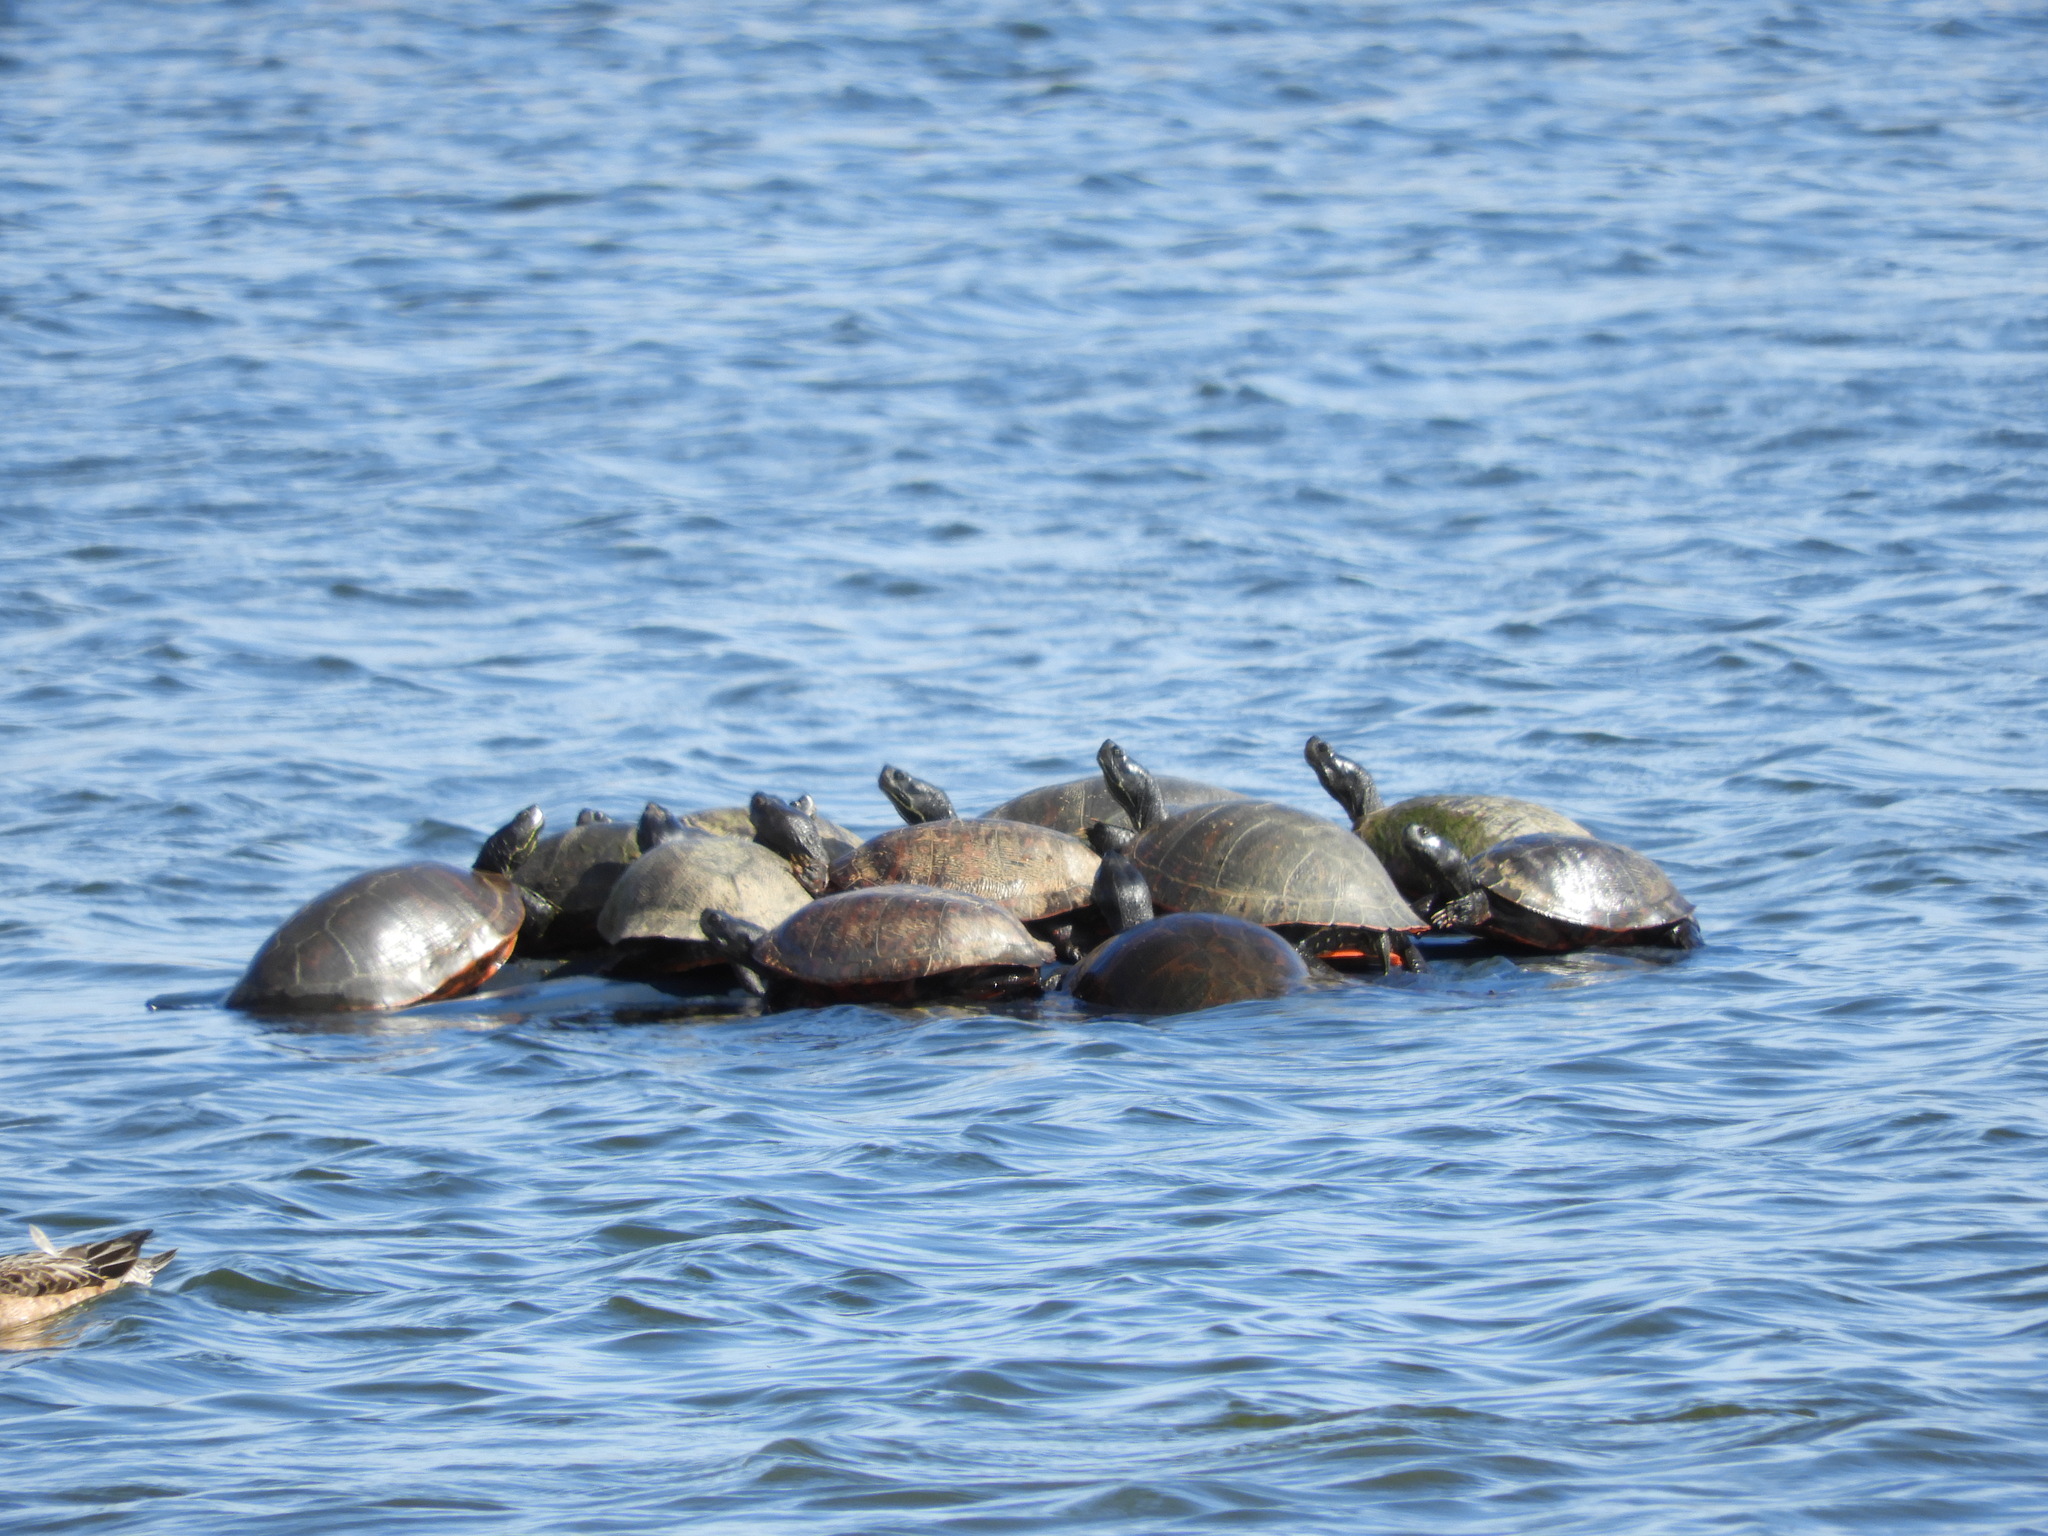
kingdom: Animalia
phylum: Chordata
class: Testudines
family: Emydidae
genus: Pseudemys
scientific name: Pseudemys rubriventris
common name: American red-bellied turtle
